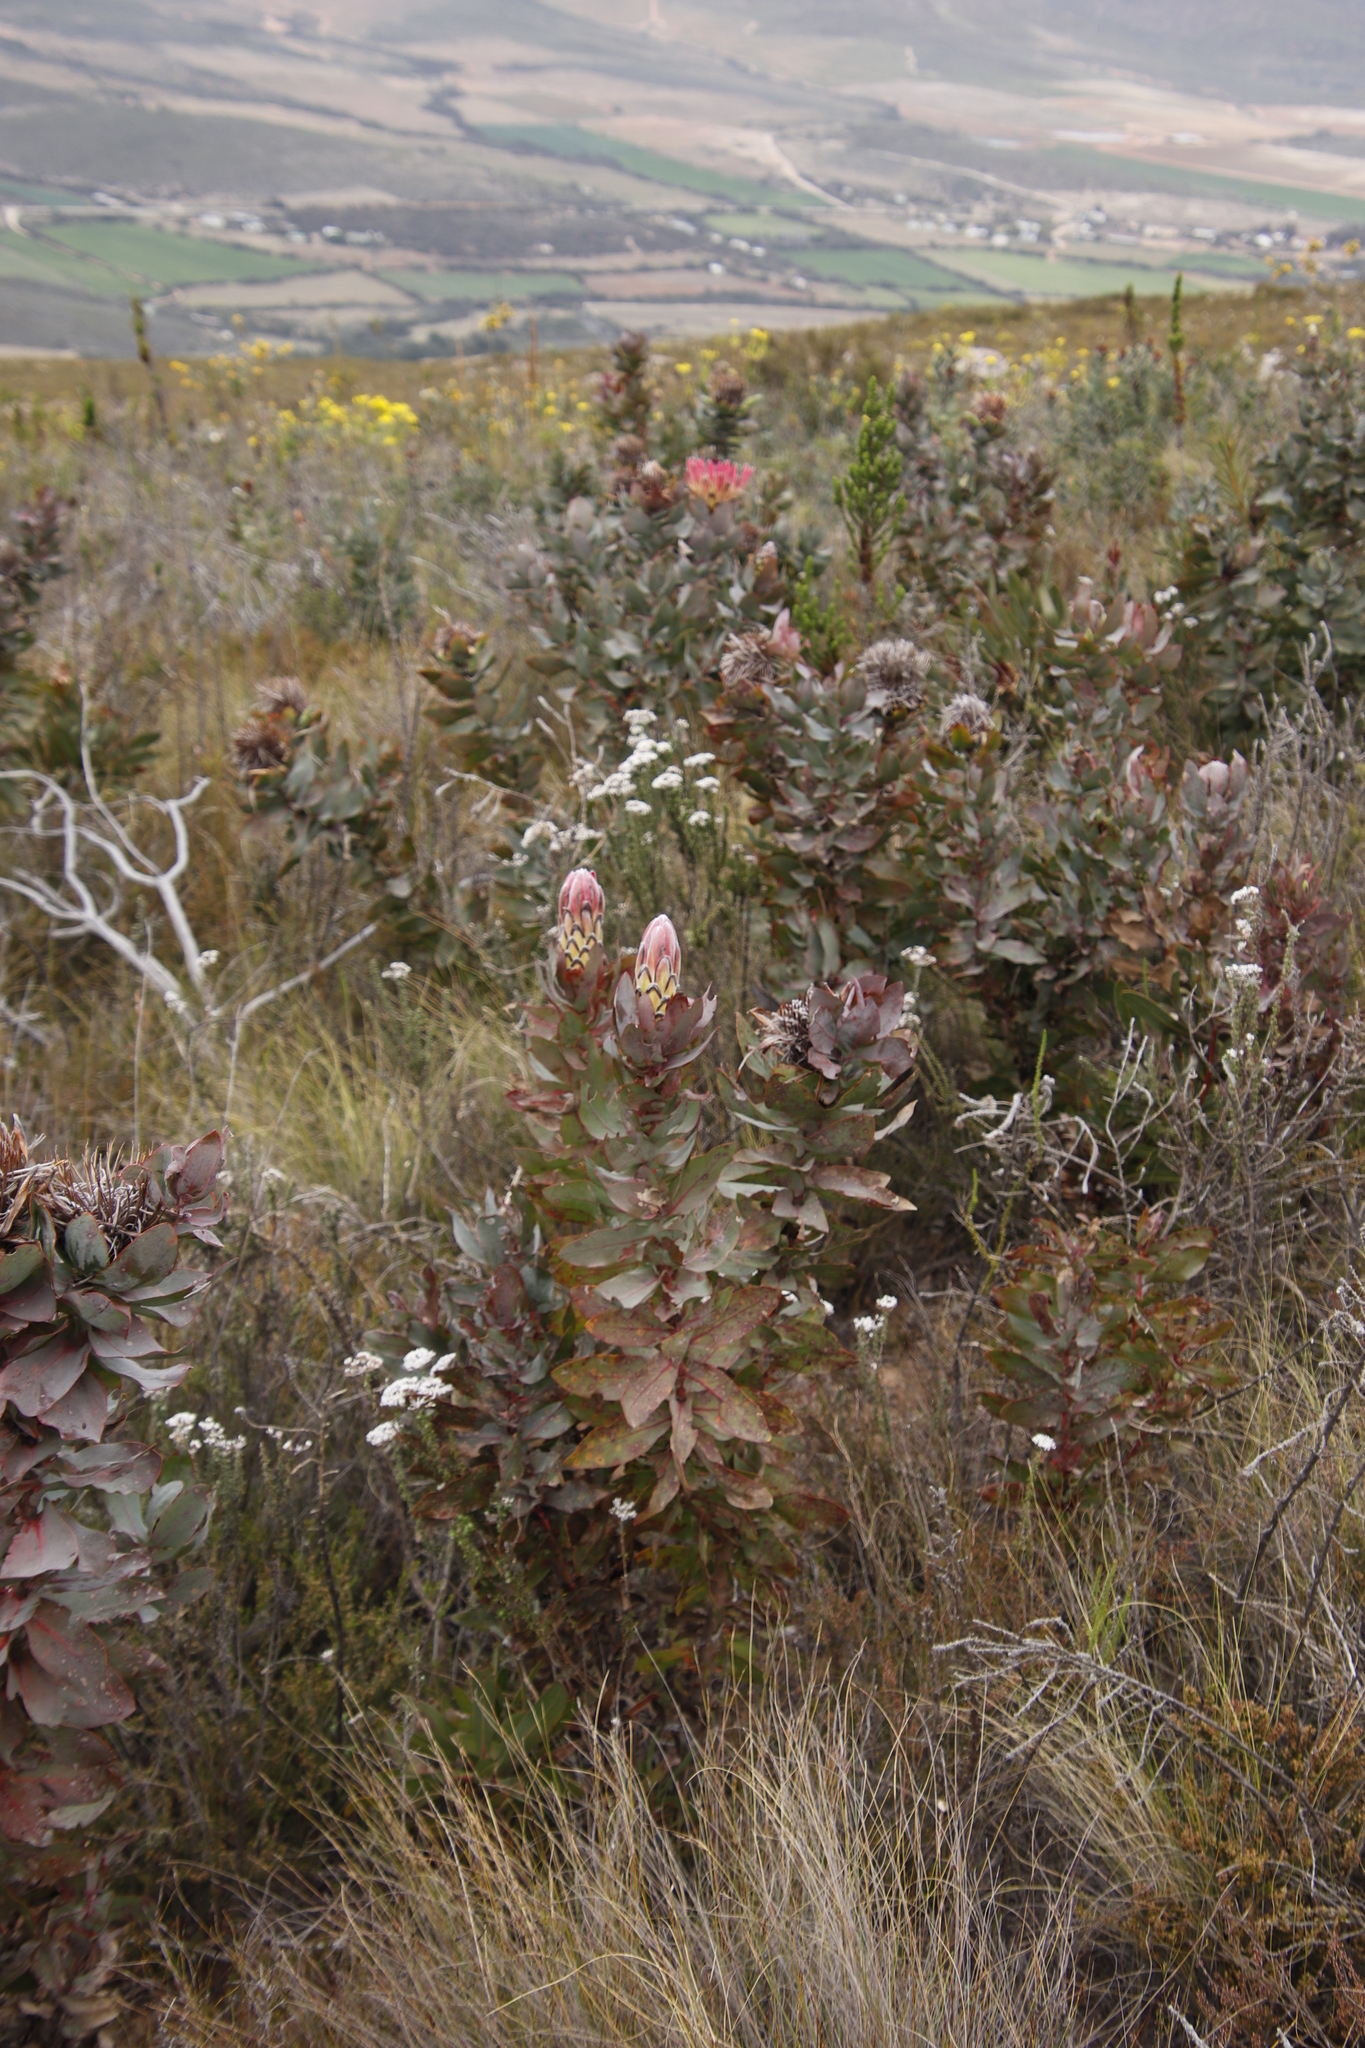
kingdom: Plantae
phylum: Tracheophyta
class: Magnoliopsida
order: Proteales
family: Proteaceae
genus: Protea
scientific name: Protea eximia
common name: Broad-leaved sugarbush
